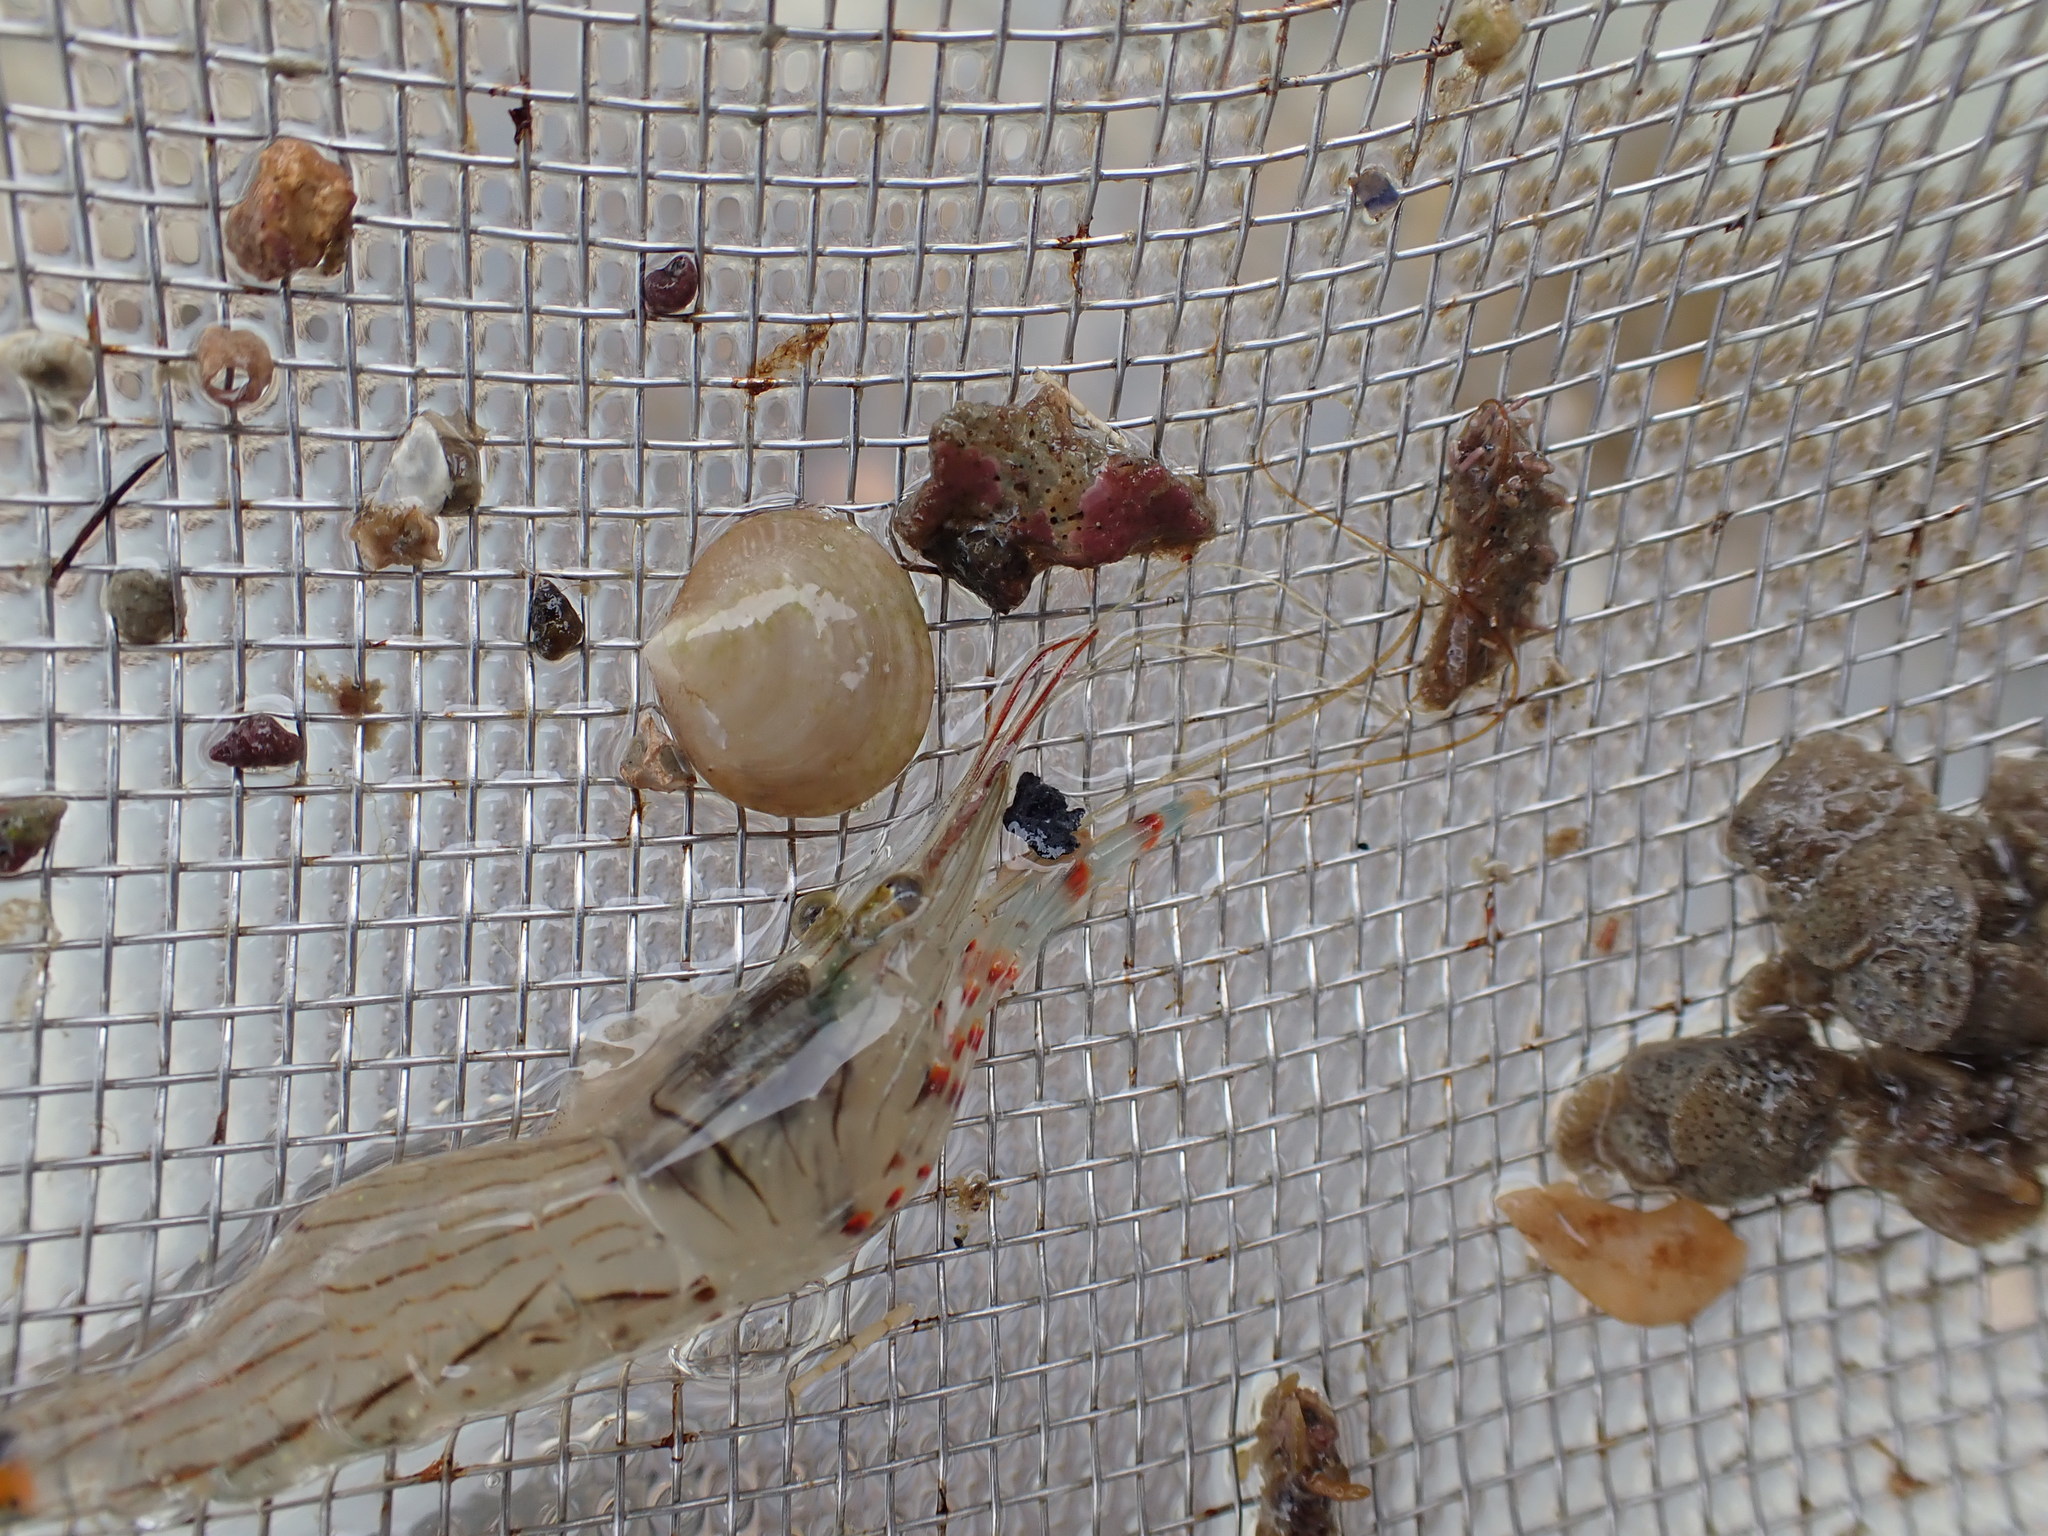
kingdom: Animalia
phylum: Arthropoda
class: Malacostraca
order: Decapoda
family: Palaemonidae
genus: Palaemon
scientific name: Palaemon affinis
